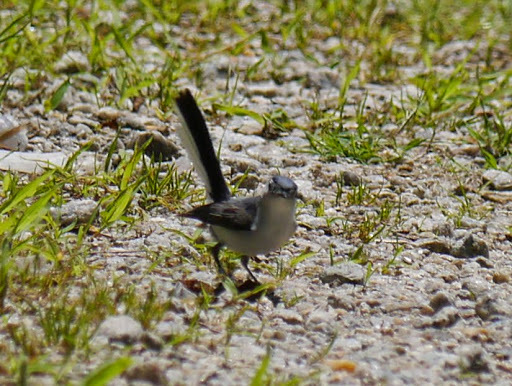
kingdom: Animalia
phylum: Chordata
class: Aves
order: Passeriformes
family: Polioptilidae
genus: Polioptila
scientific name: Polioptila caerulea
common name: Blue-gray gnatcatcher
